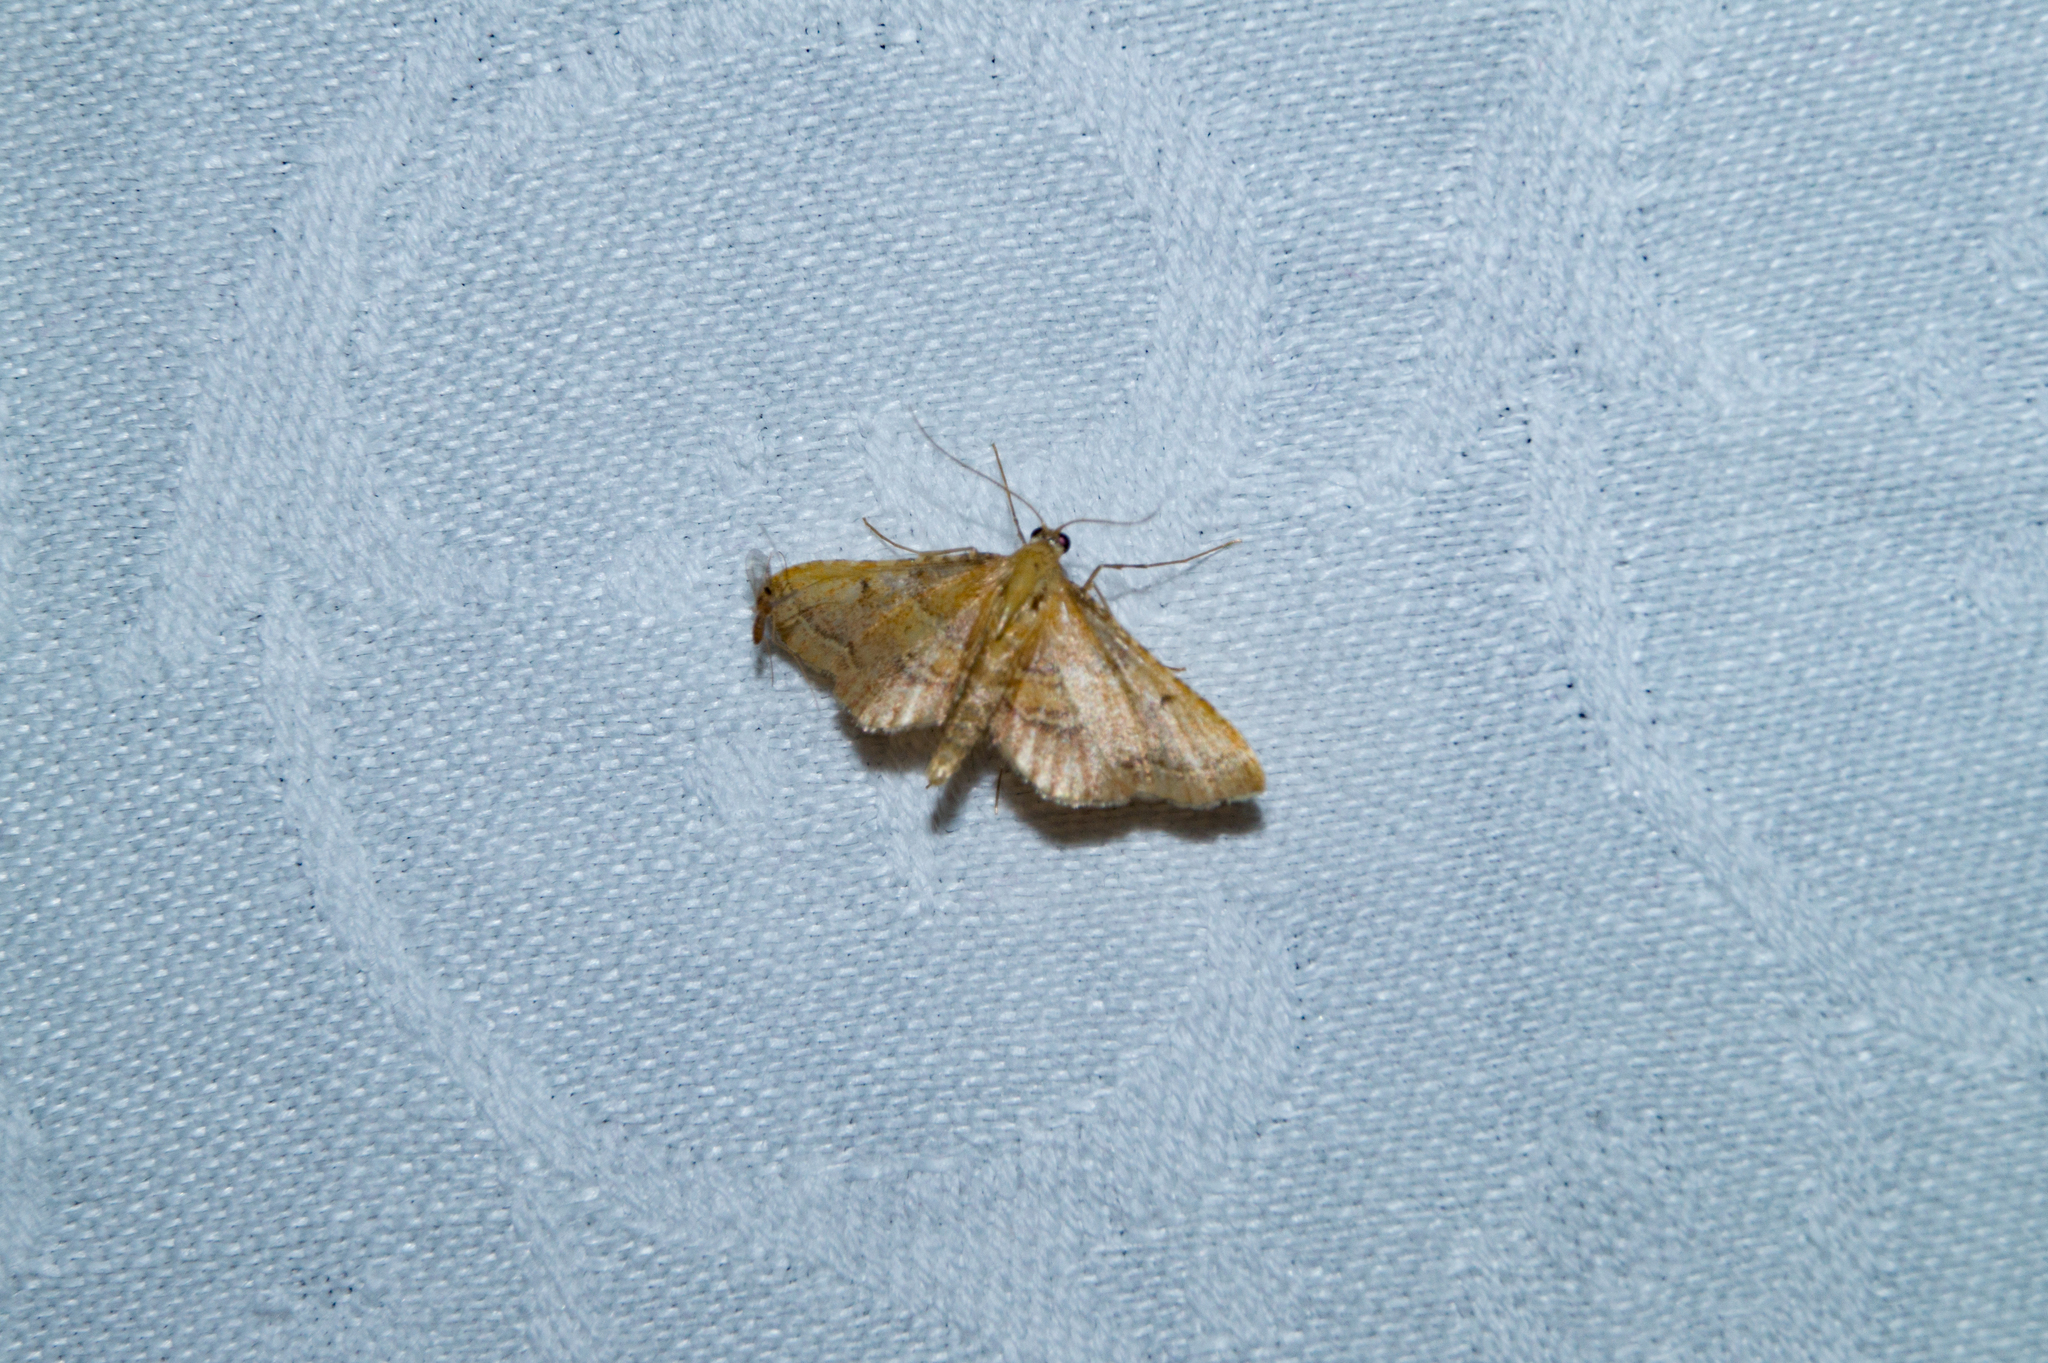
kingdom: Animalia
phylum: Arthropoda
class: Insecta
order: Lepidoptera
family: Pyralidae
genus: Endotricha
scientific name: Endotricha flammealis
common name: Rosy tabby
